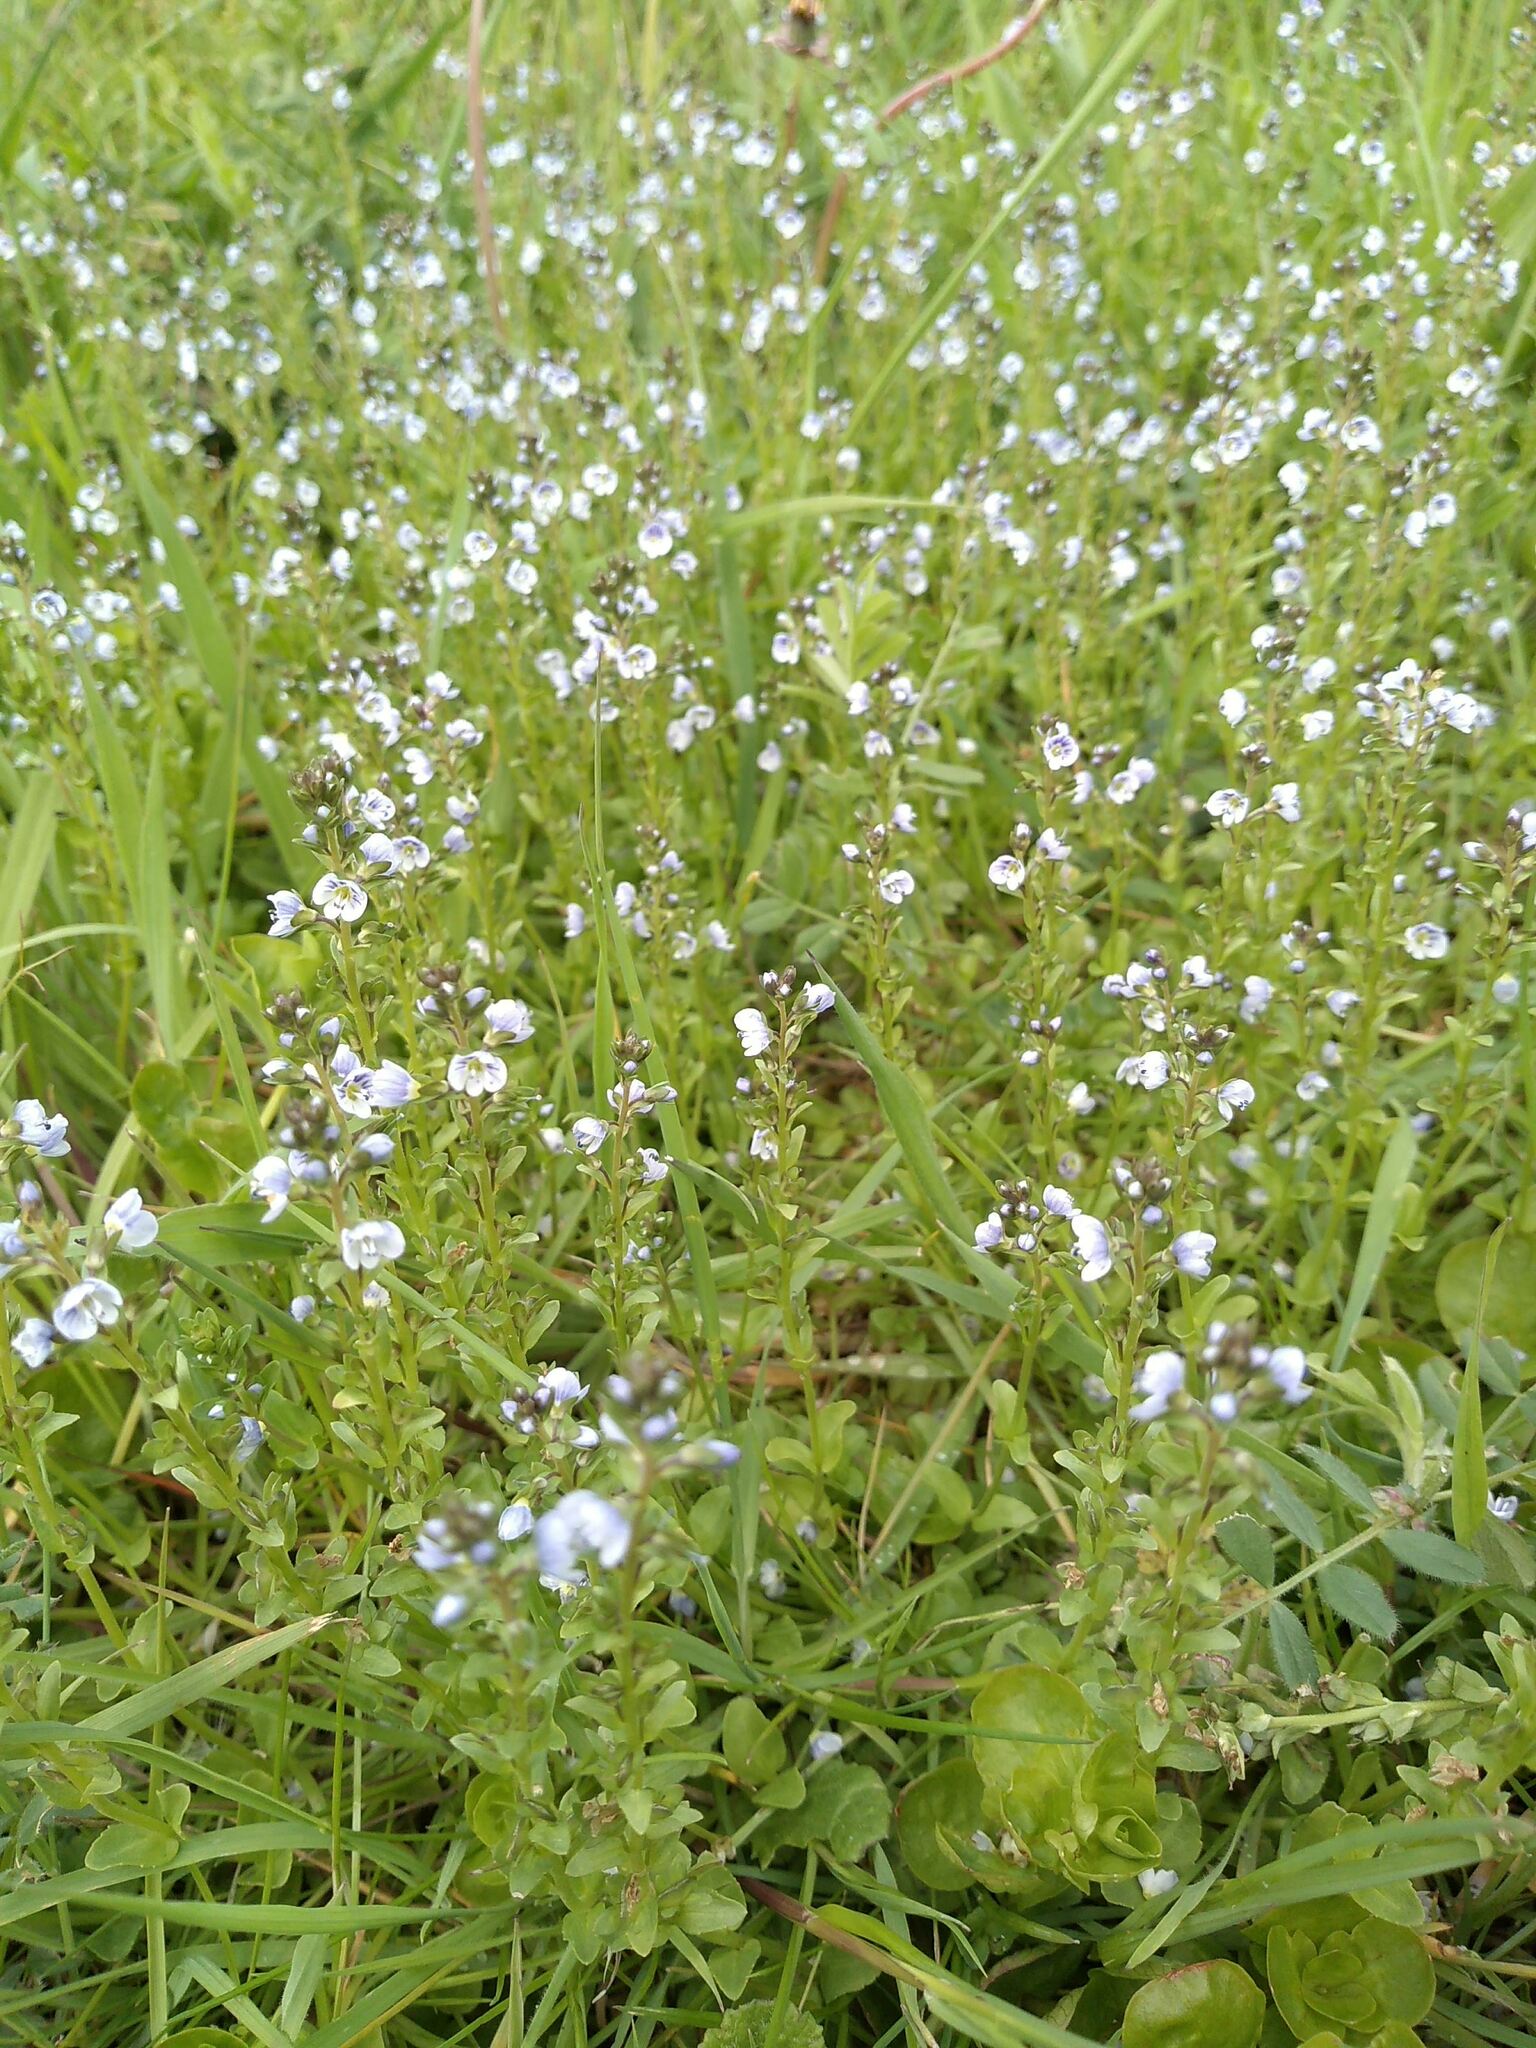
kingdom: Plantae
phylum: Tracheophyta
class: Magnoliopsida
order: Lamiales
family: Plantaginaceae
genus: Veronica
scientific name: Veronica serpyllifolia
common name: Thyme-leaved speedwell
